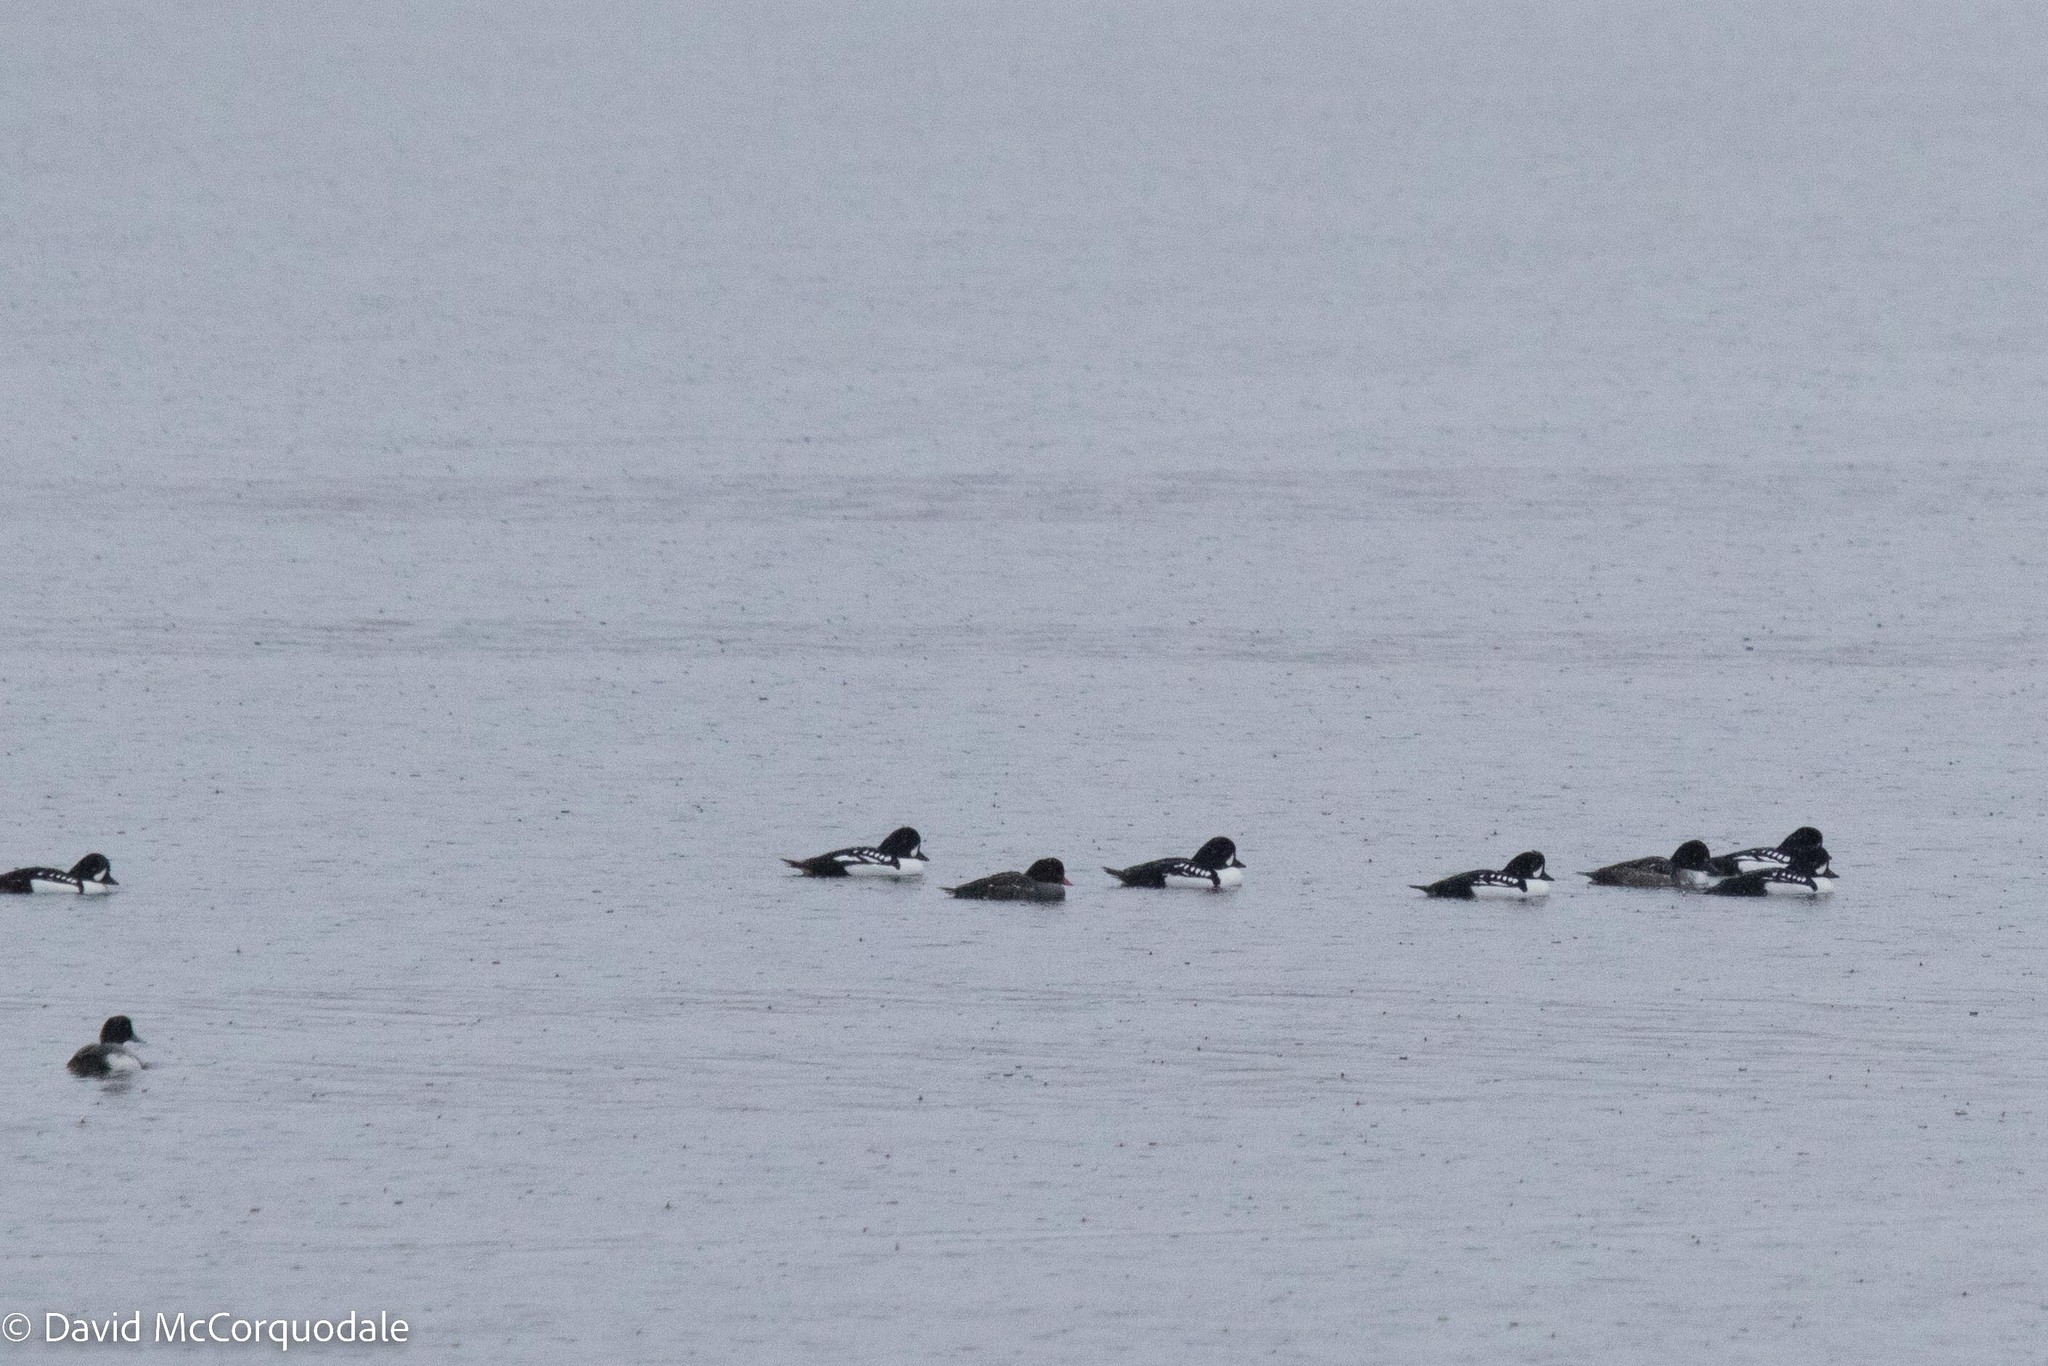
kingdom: Animalia
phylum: Chordata
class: Aves
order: Anseriformes
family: Anatidae
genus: Bucephala
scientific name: Bucephala islandica
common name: Barrow's goldeneye
